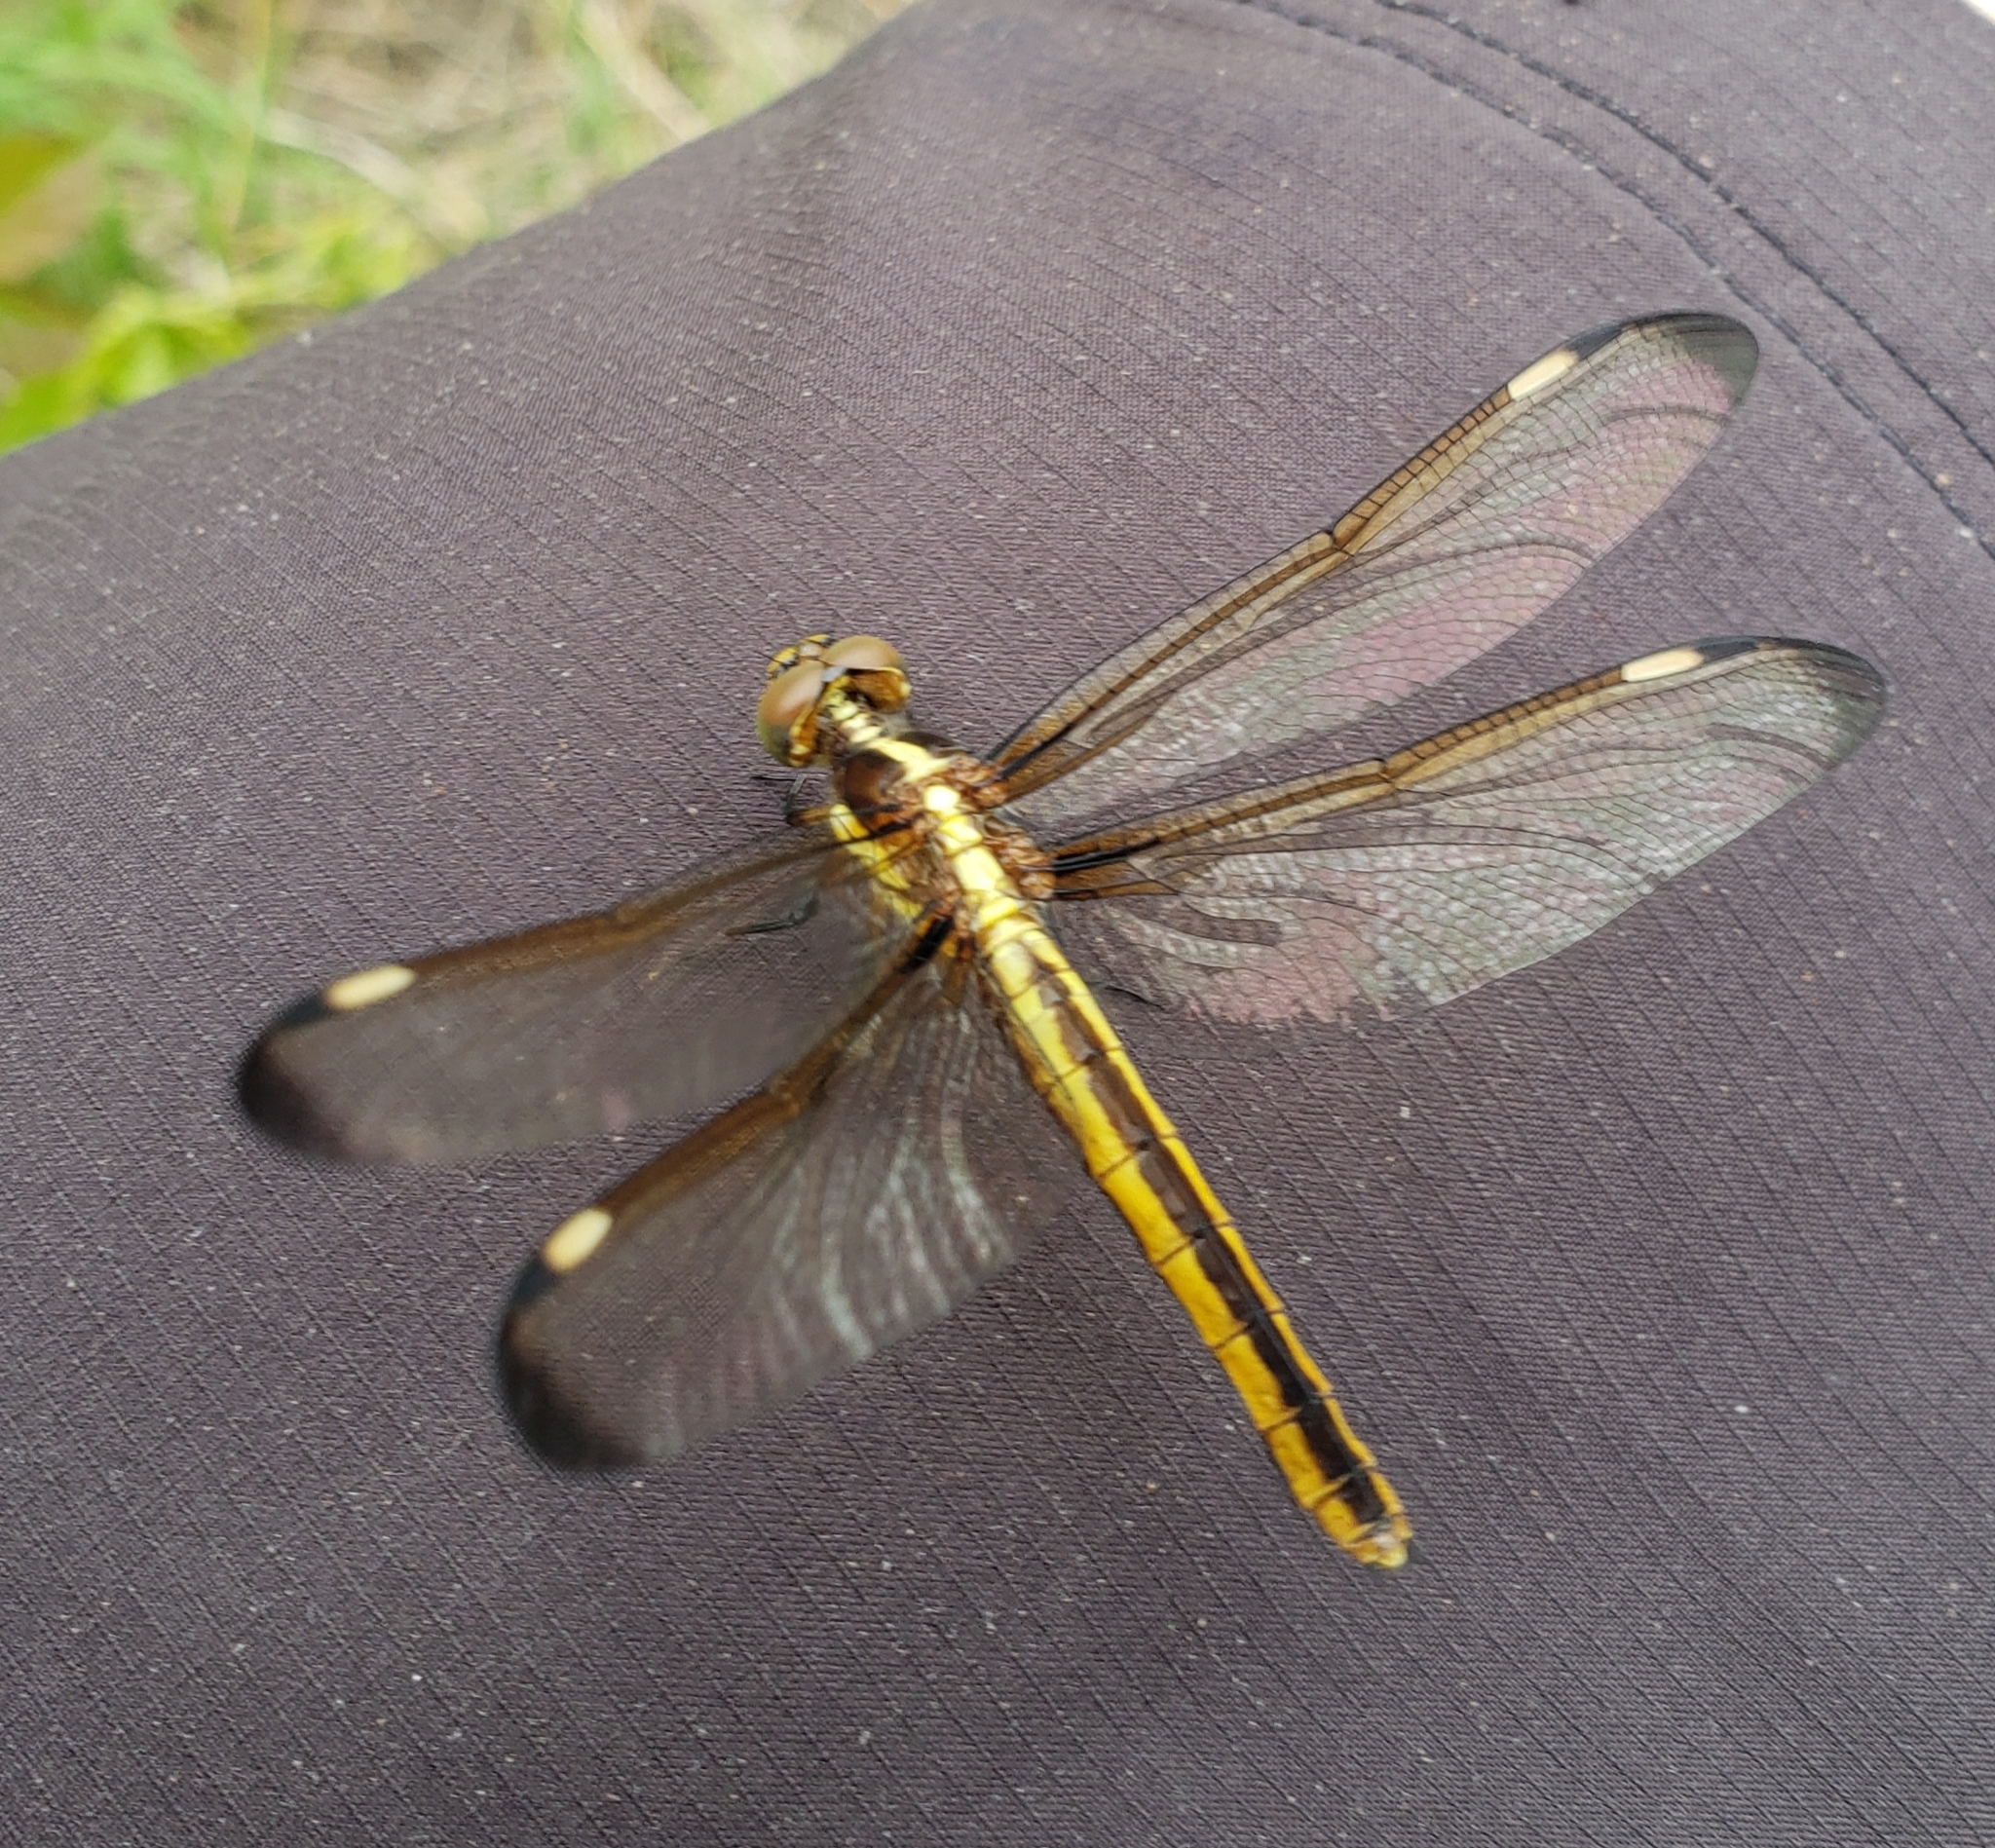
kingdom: Animalia
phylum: Arthropoda
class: Insecta
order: Odonata
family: Libellulidae
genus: Libellula
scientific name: Libellula cyanea
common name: Spangled skimmer
